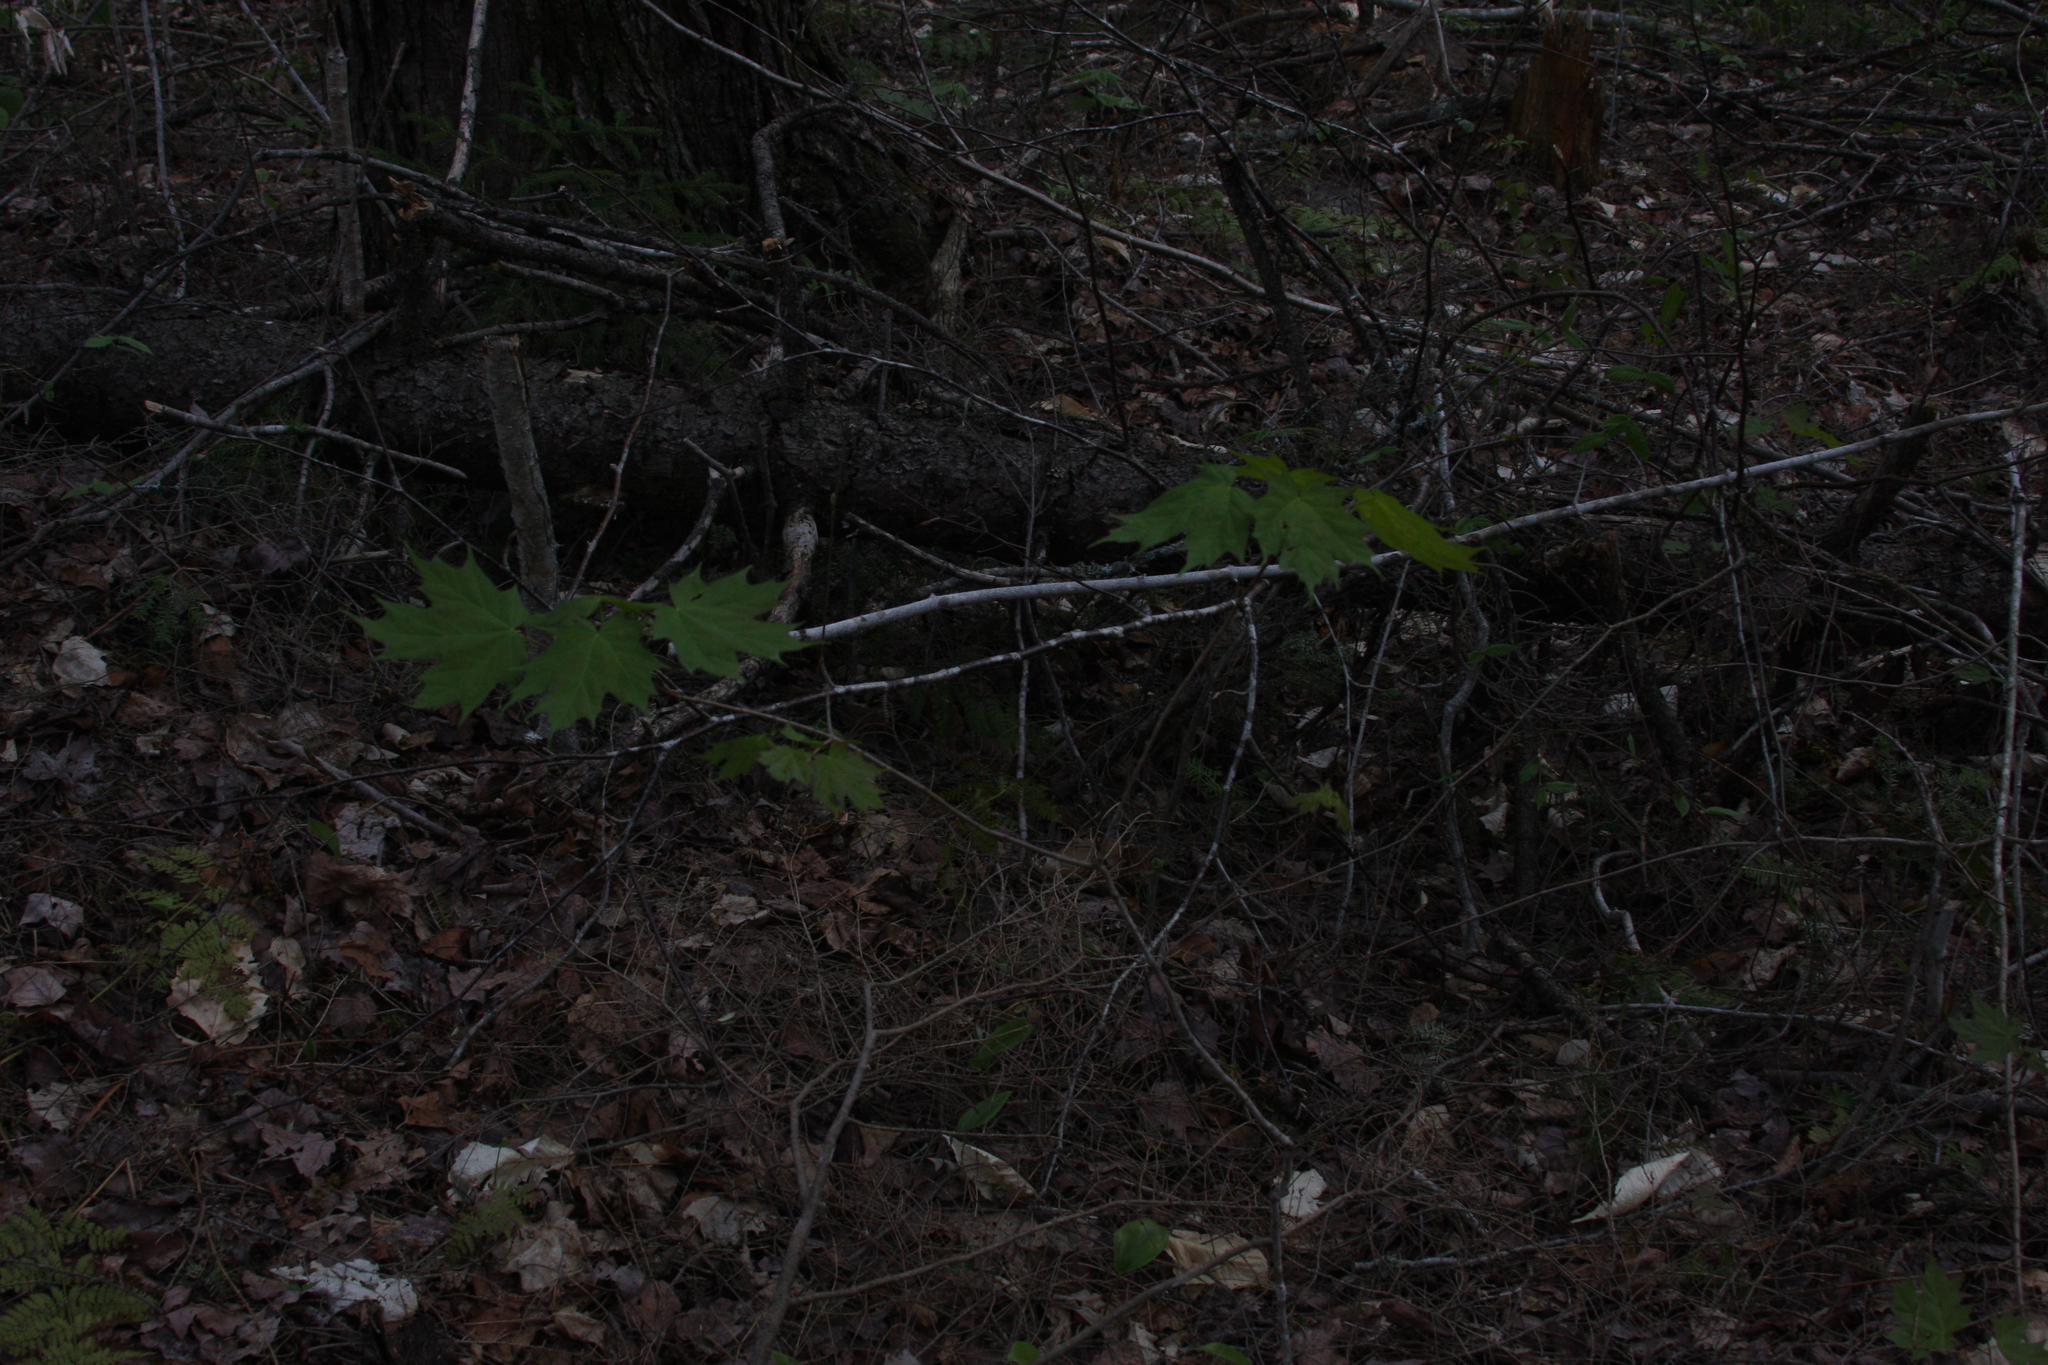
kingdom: Plantae
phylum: Tracheophyta
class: Magnoliopsida
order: Sapindales
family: Sapindaceae
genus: Acer
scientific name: Acer saccharum
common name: Sugar maple
